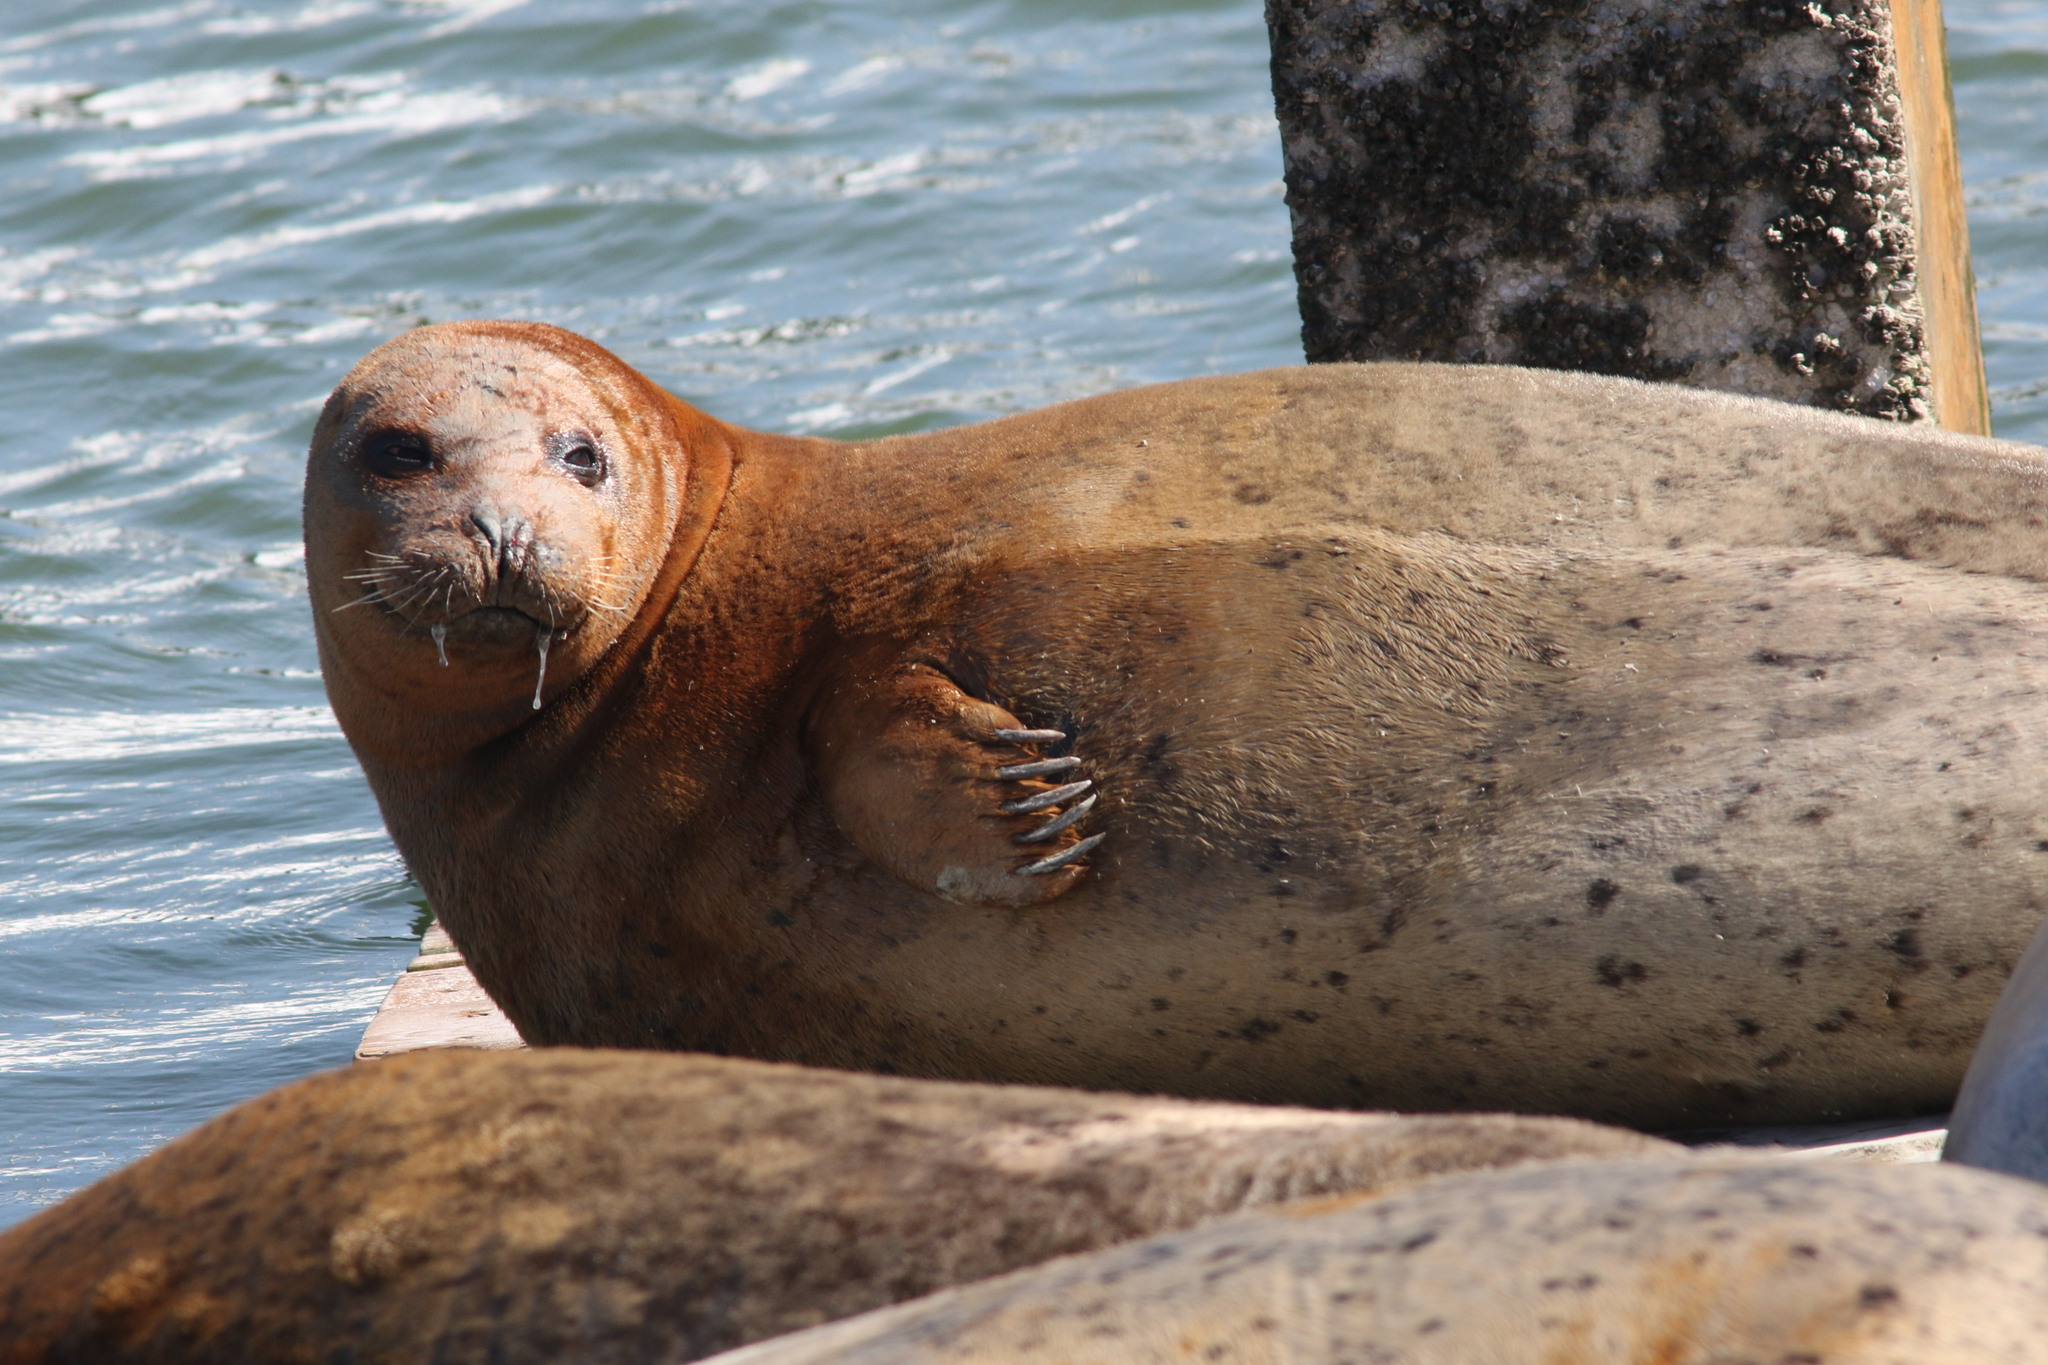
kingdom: Animalia
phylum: Chordata
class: Mammalia
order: Carnivora
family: Phocidae
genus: Phoca
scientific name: Phoca vitulina
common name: Harbor seal
